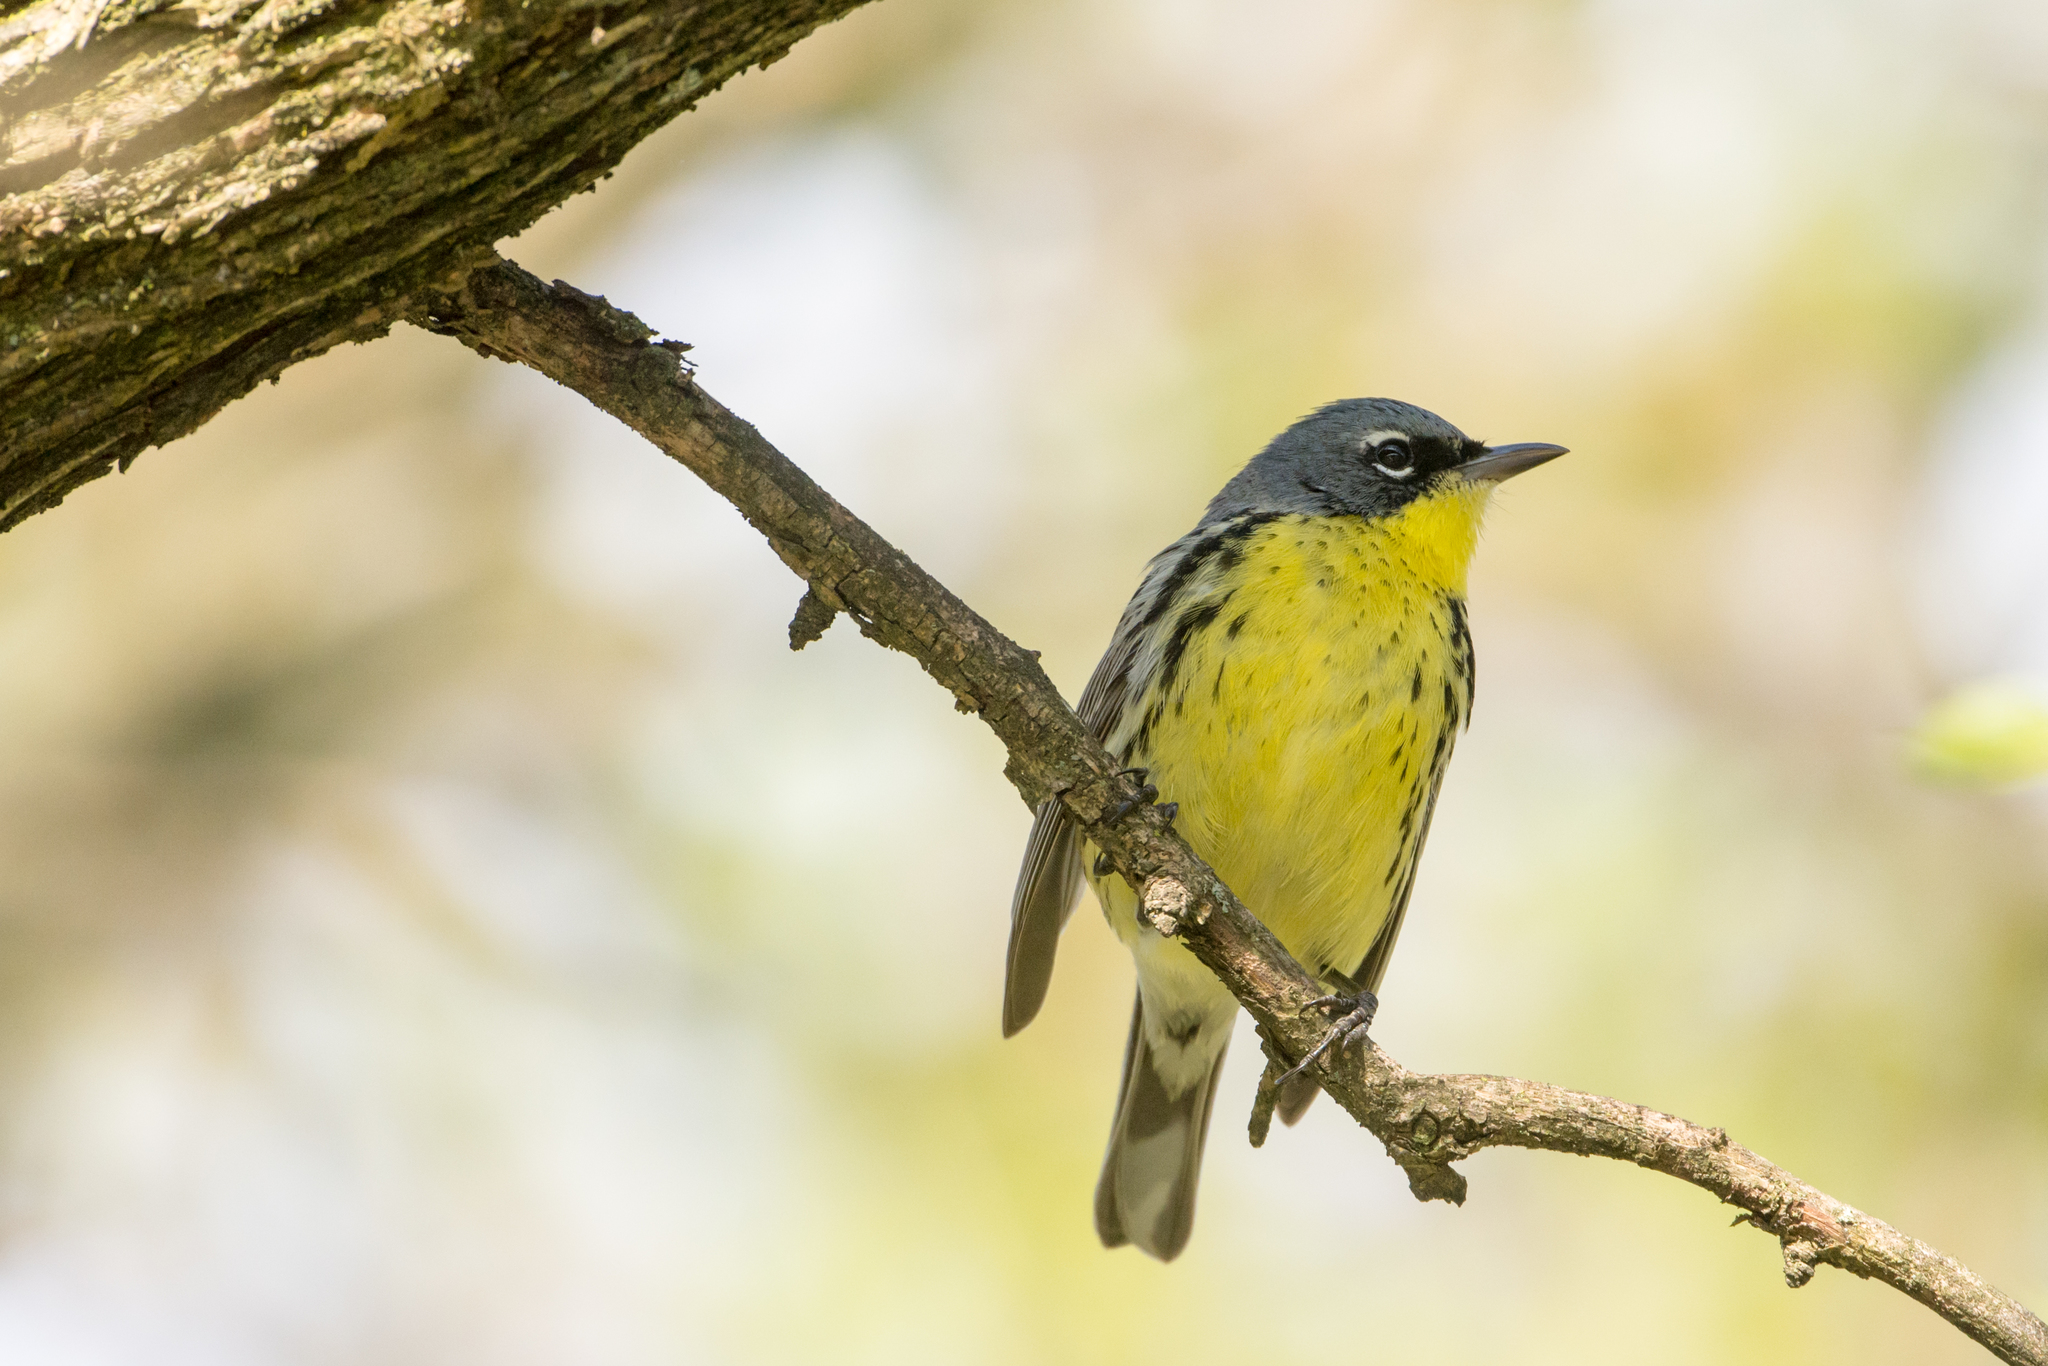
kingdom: Animalia
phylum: Chordata
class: Aves
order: Passeriformes
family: Parulidae
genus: Setophaga
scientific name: Setophaga kirtlandii
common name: Kirtland's warbler
